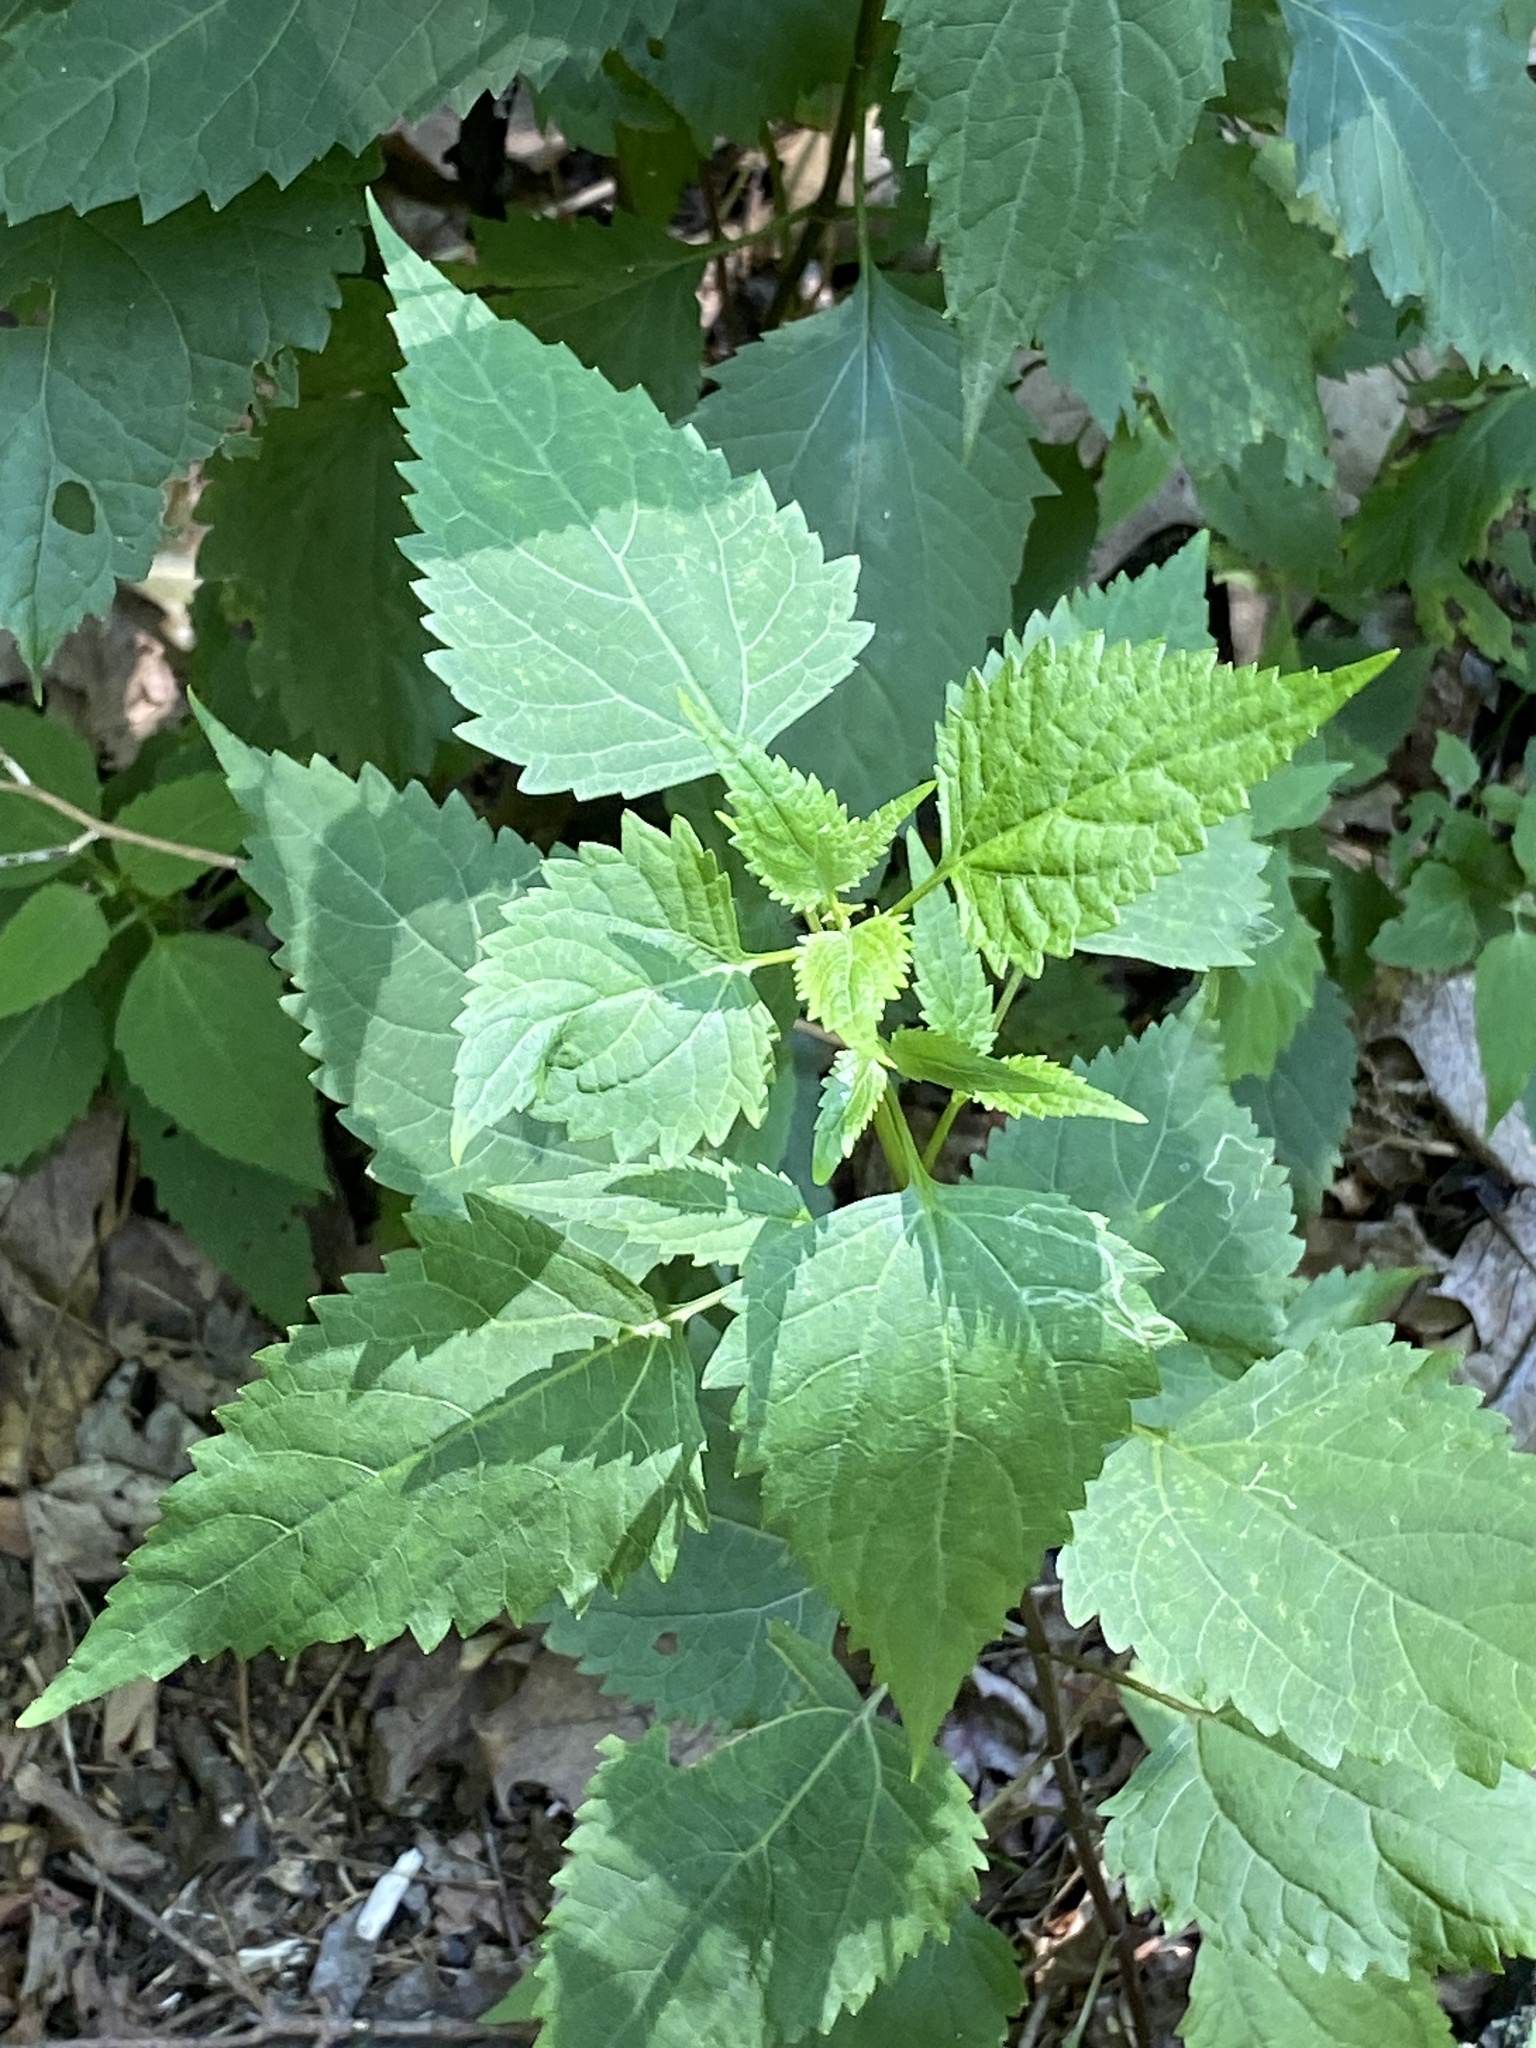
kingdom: Plantae
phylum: Tracheophyta
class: Magnoliopsida
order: Asterales
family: Asteraceae
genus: Ageratina
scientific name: Ageratina altissima
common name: White snakeroot
